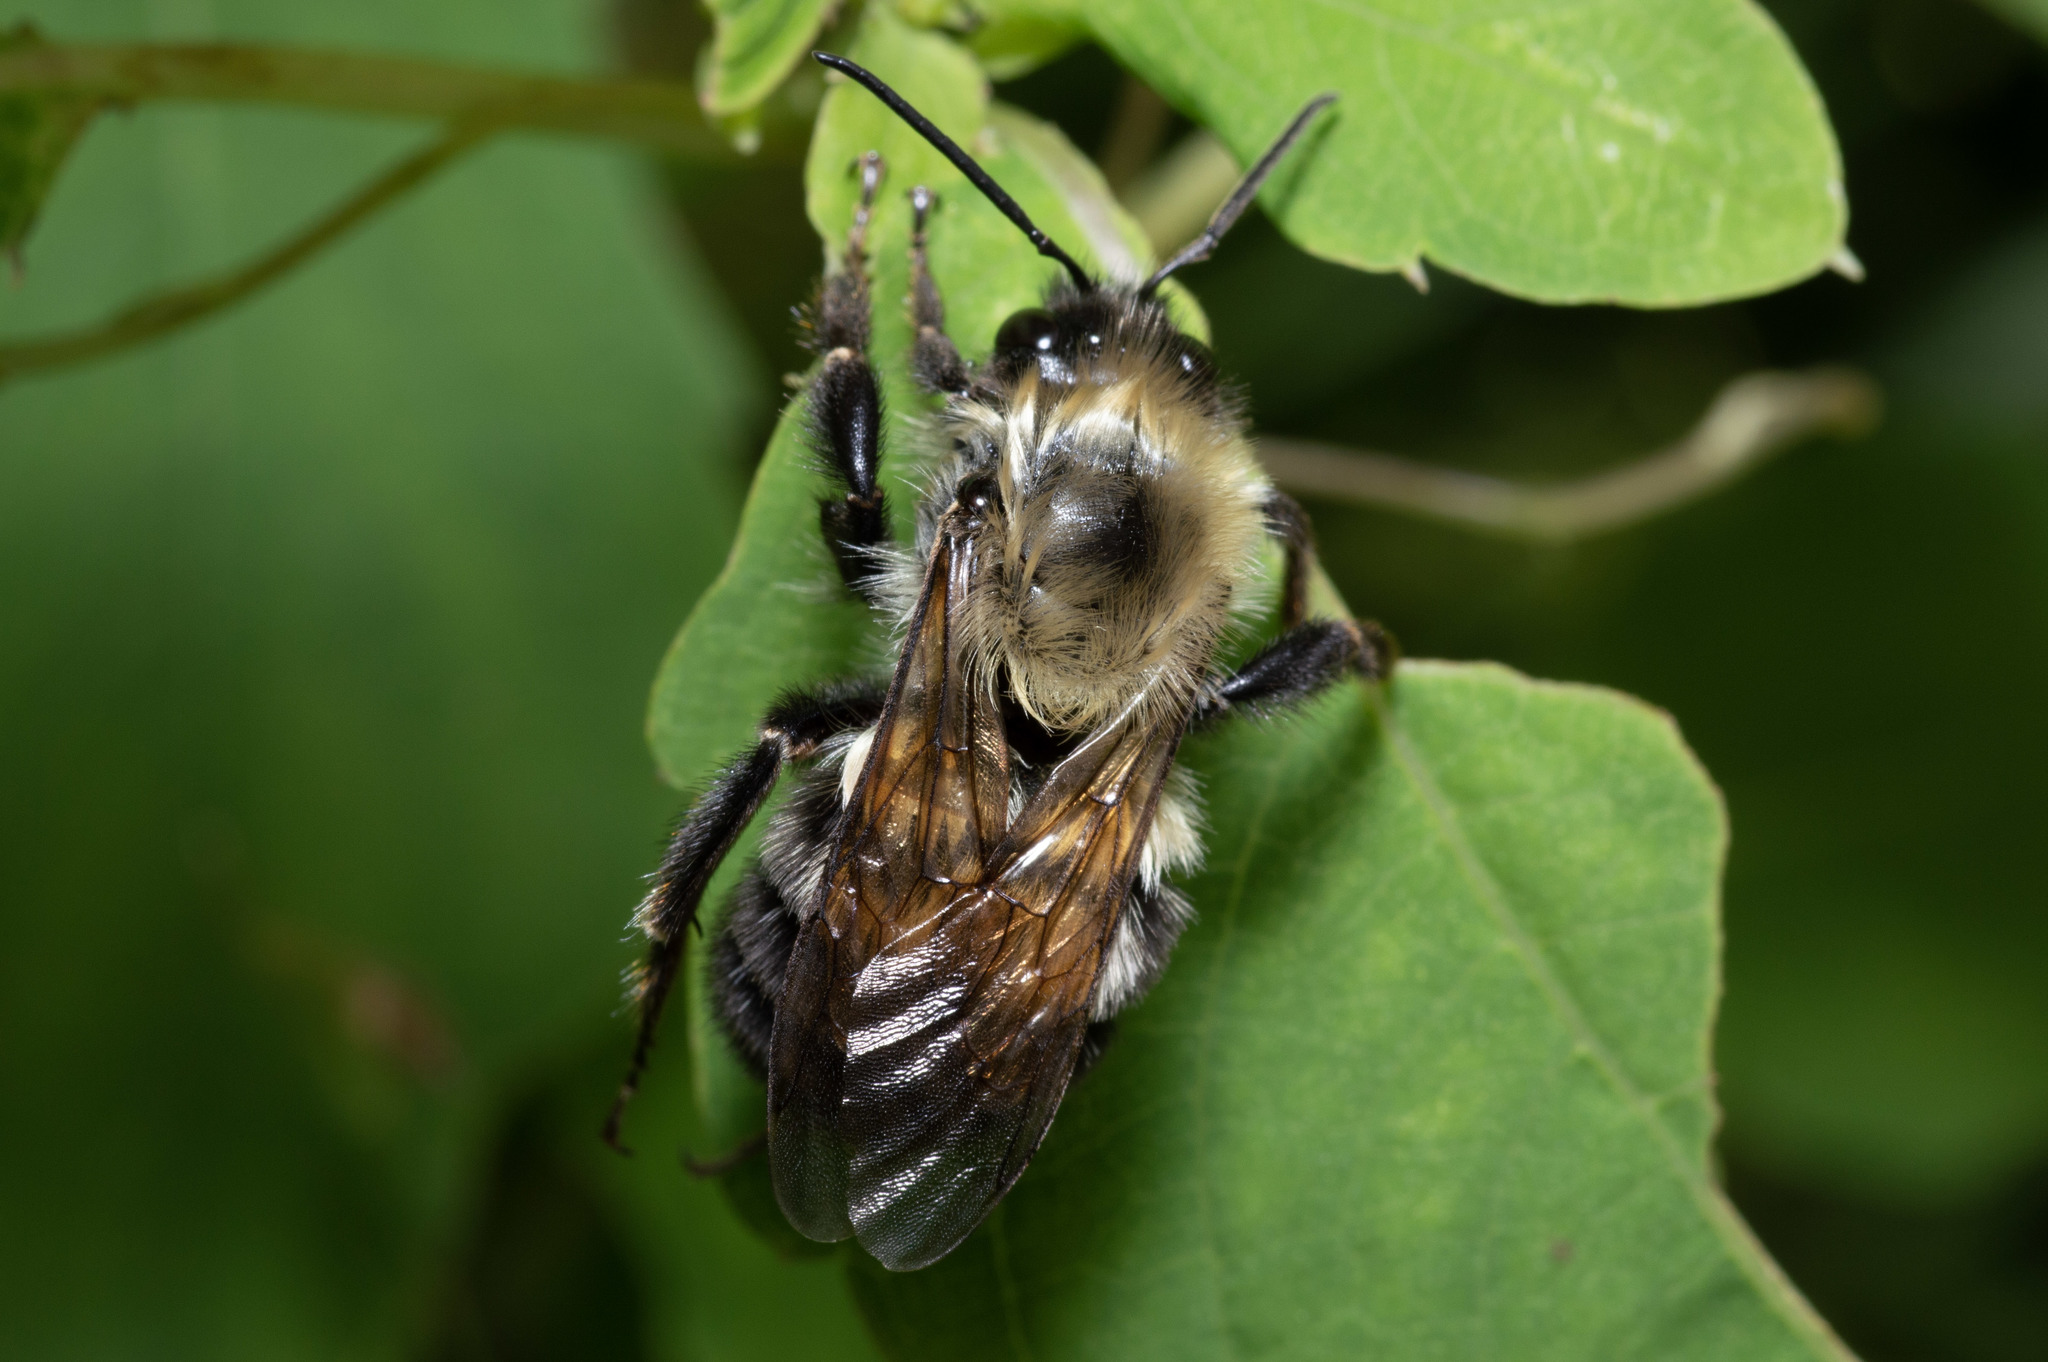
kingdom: Animalia
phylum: Arthropoda
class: Insecta
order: Hymenoptera
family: Apidae
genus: Bombus
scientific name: Bombus bimaculatus
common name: Two-spotted bumble bee
